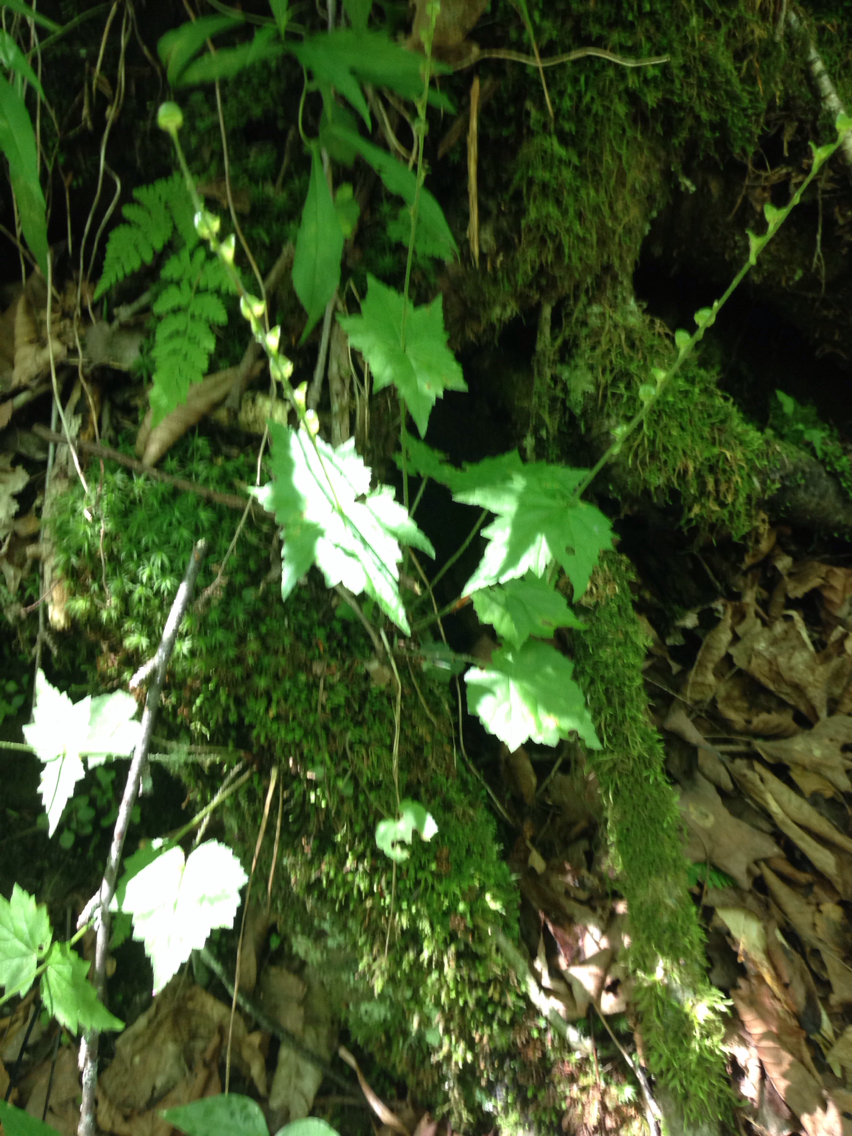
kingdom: Plantae
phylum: Tracheophyta
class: Magnoliopsida
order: Saxifragales
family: Saxifragaceae
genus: Mitella
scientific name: Mitella diphylla
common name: Coolwort
